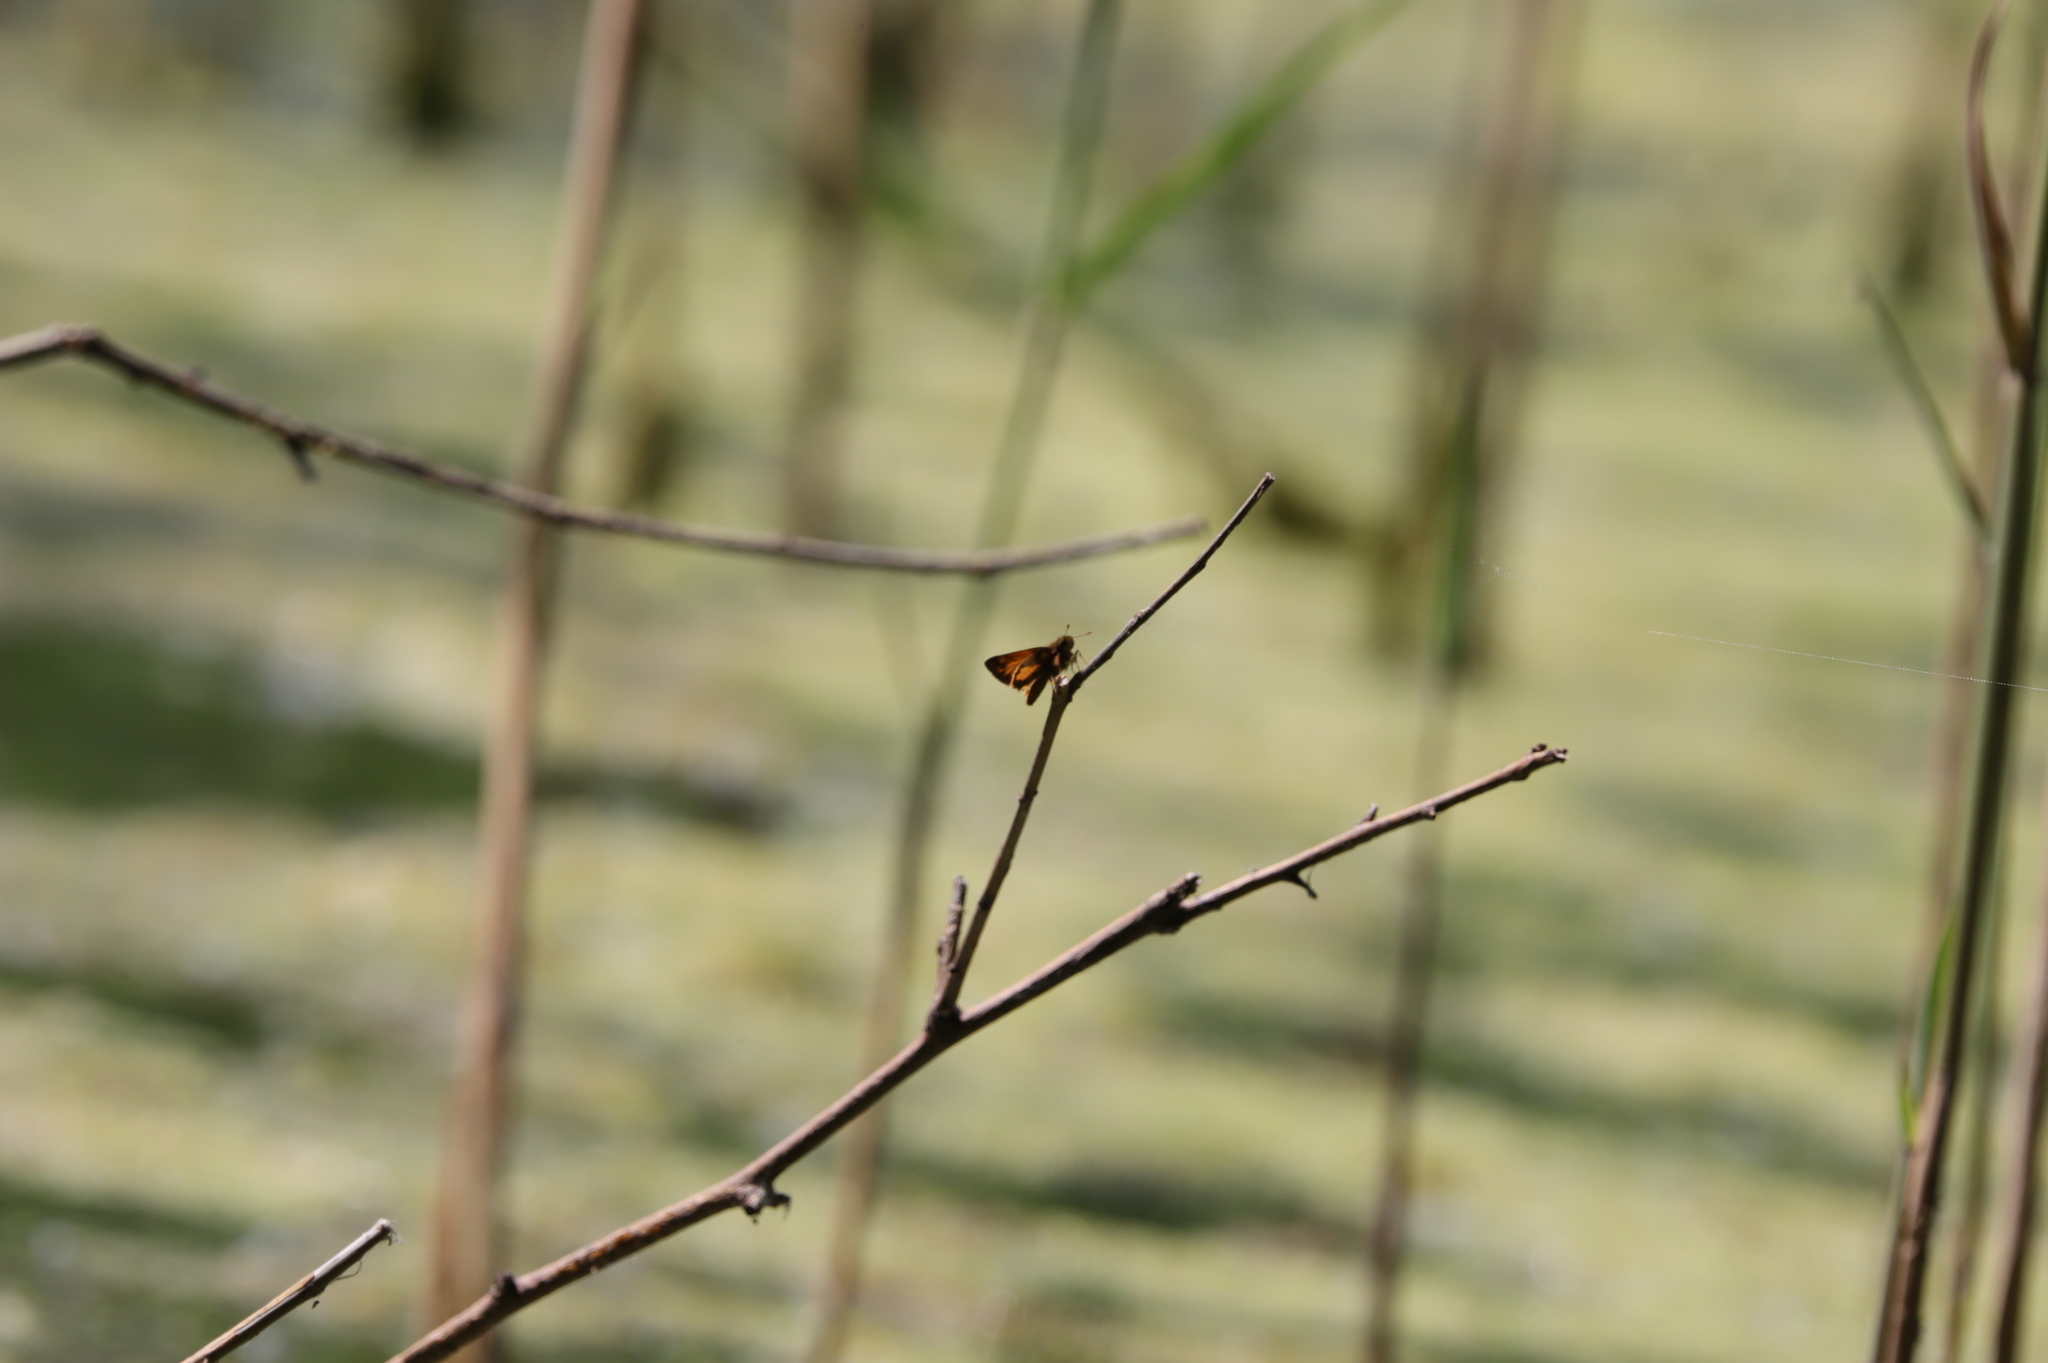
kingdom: Animalia
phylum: Arthropoda
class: Insecta
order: Lepidoptera
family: Hesperiidae
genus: Lon
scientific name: Lon zabulon
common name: Zabulon skipper
